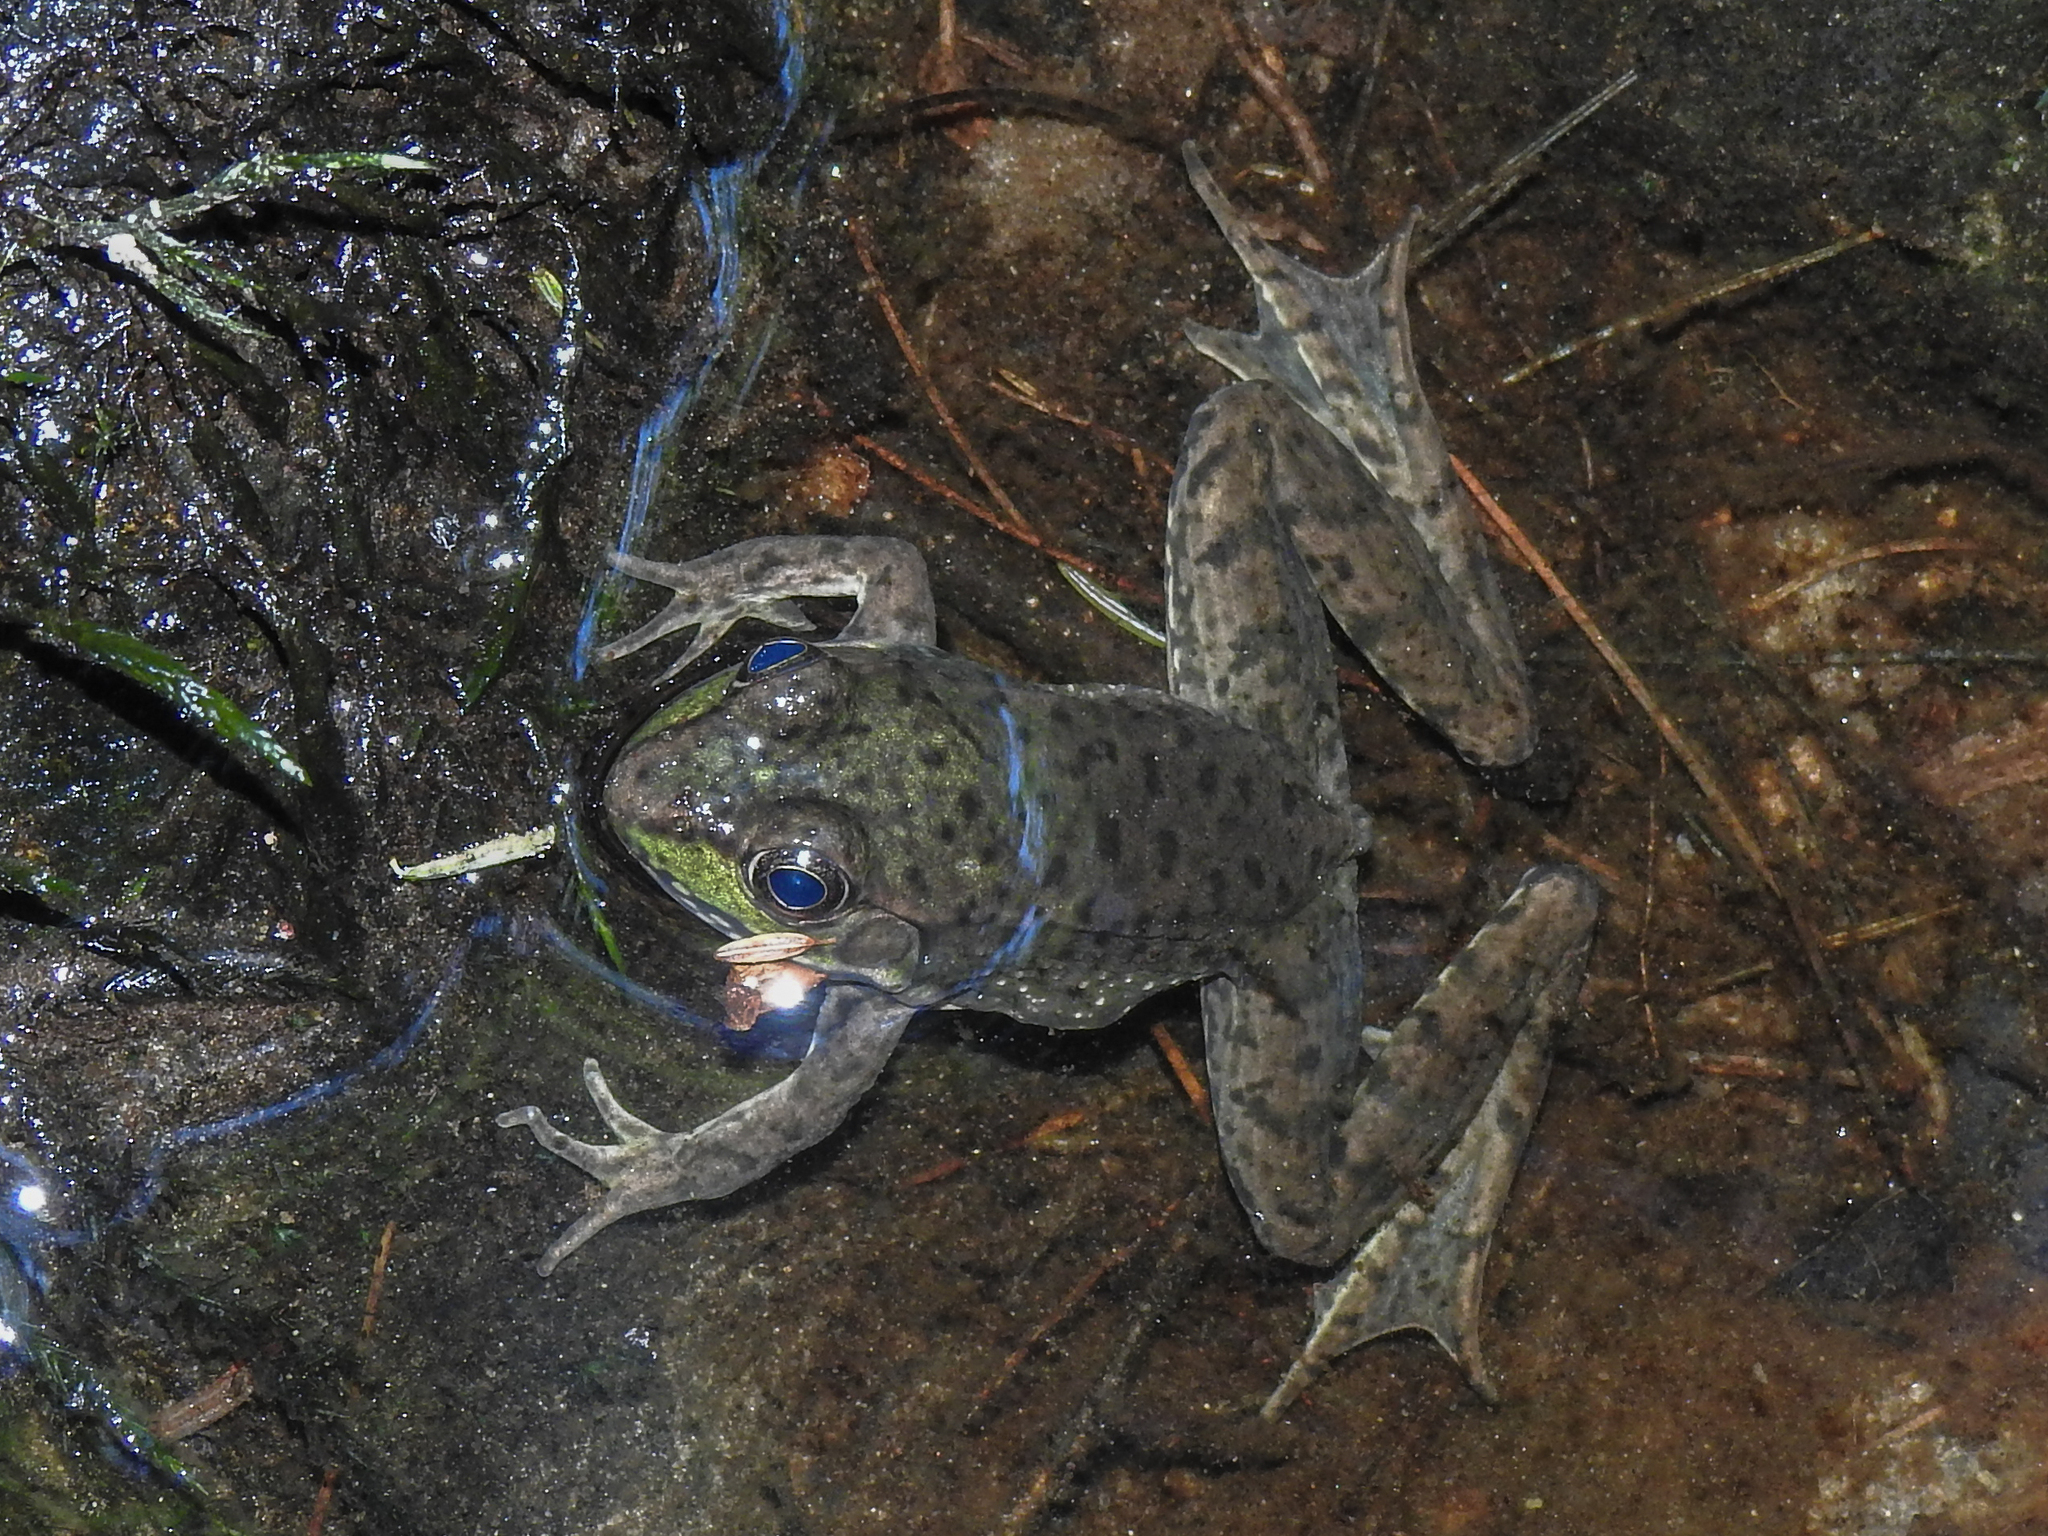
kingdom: Animalia
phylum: Chordata
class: Amphibia
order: Anura
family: Ranidae
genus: Lithobates
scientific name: Lithobates clamitans
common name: Green frog
